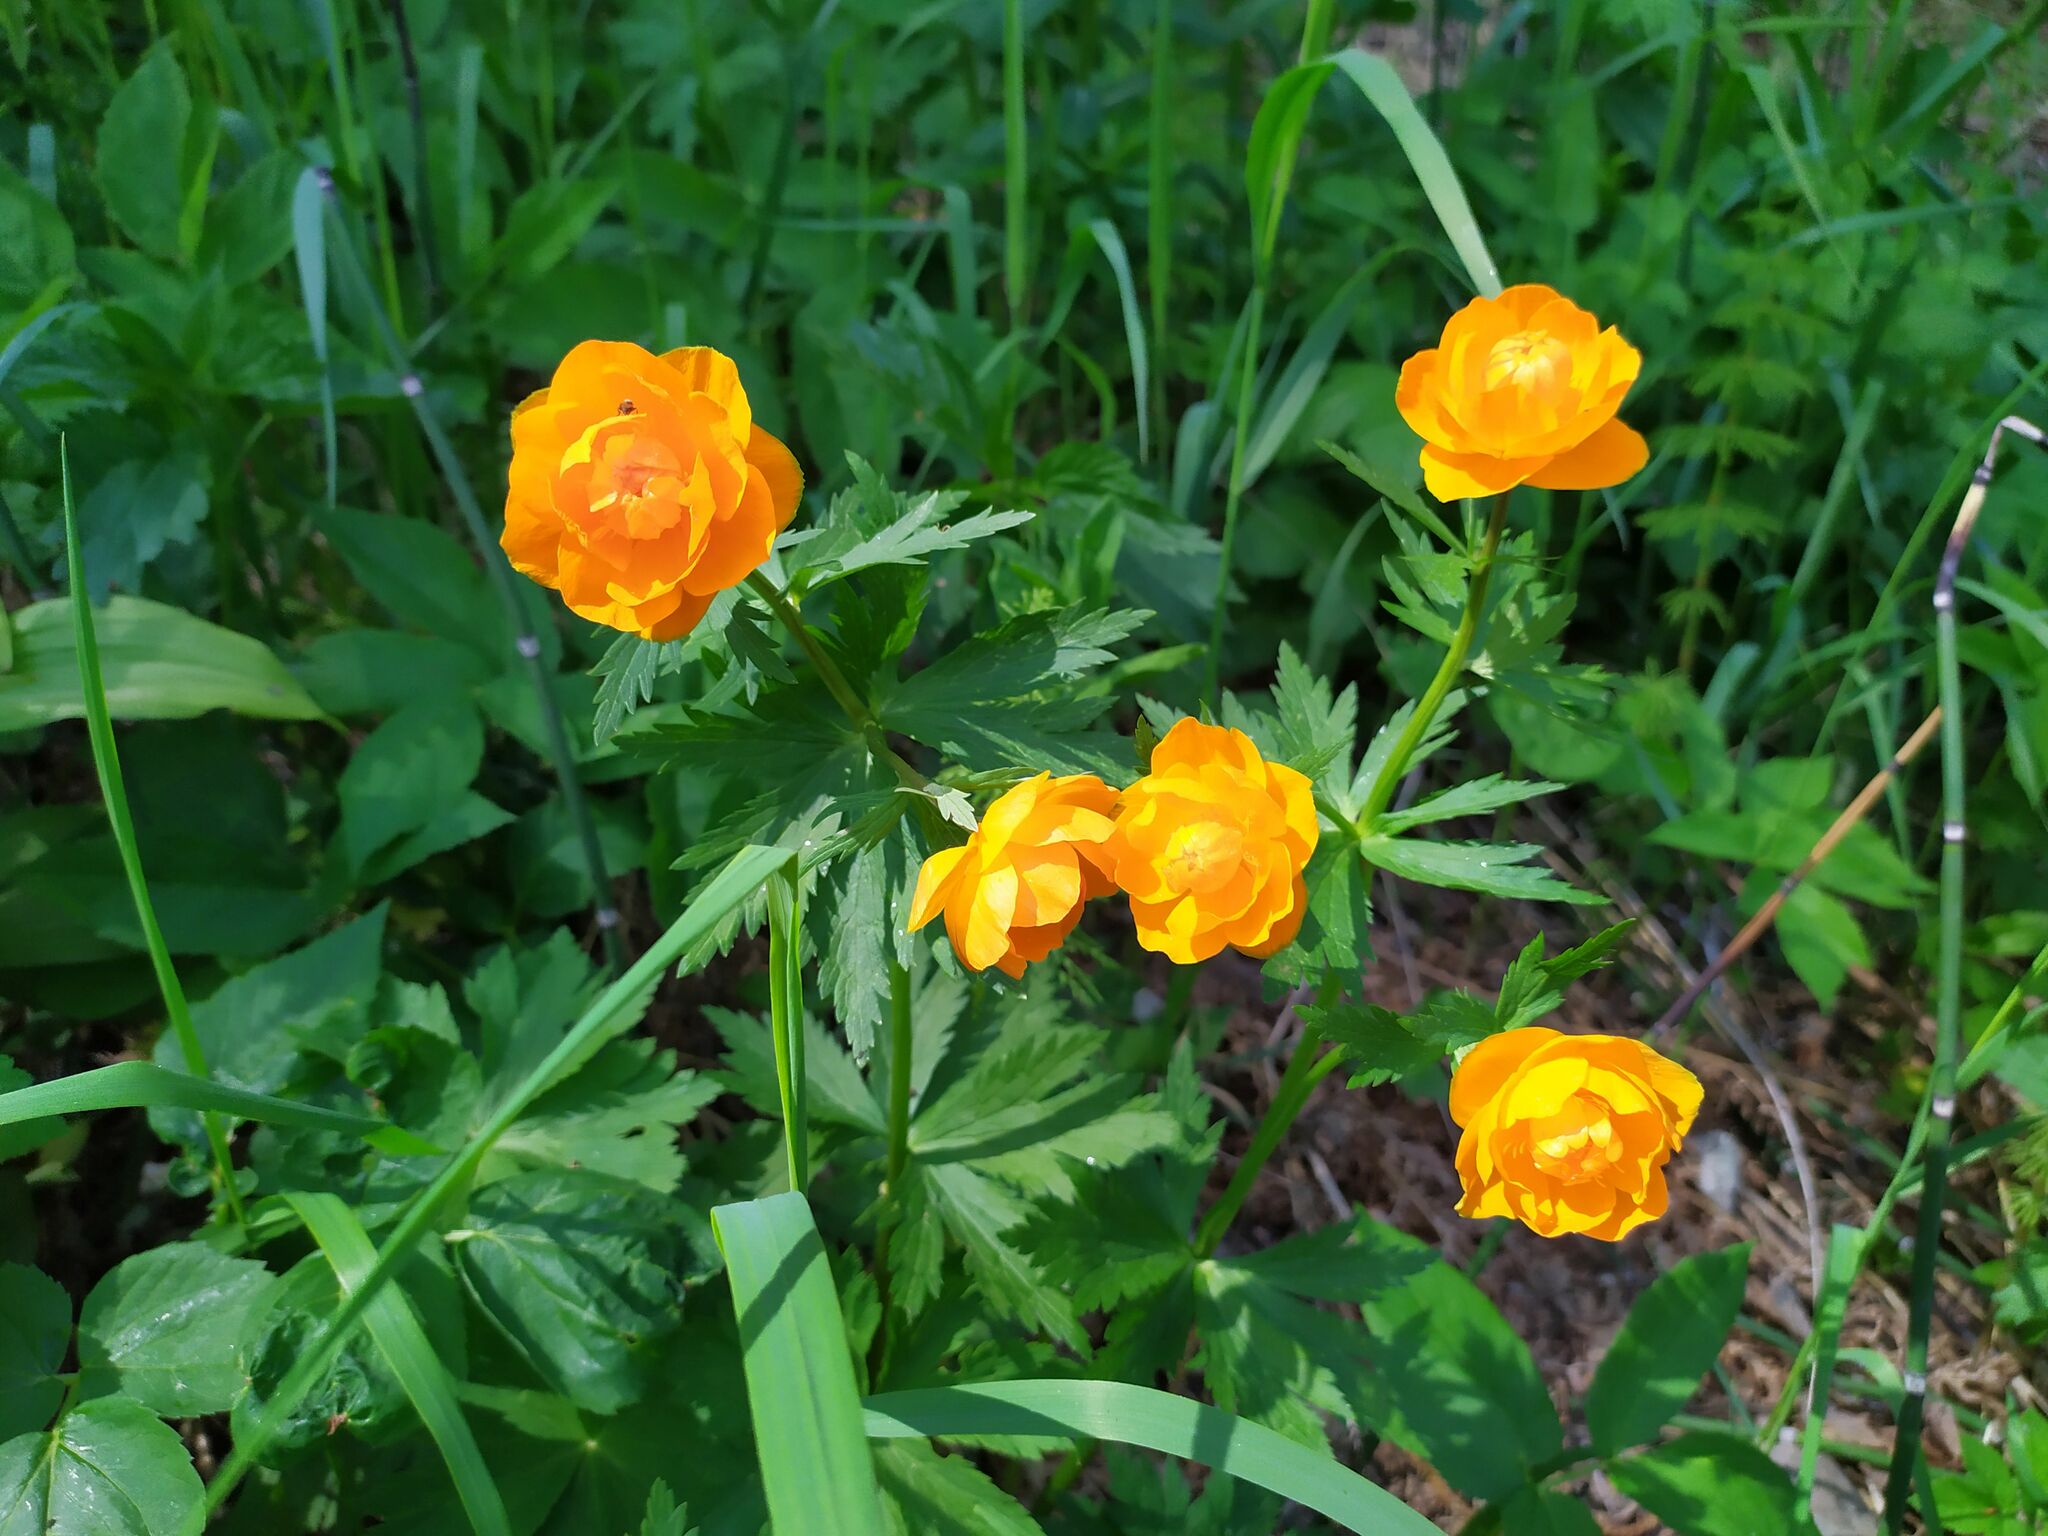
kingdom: Plantae
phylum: Tracheophyta
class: Magnoliopsida
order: Ranunculales
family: Ranunculaceae
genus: Trollius
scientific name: Trollius asiaticus
